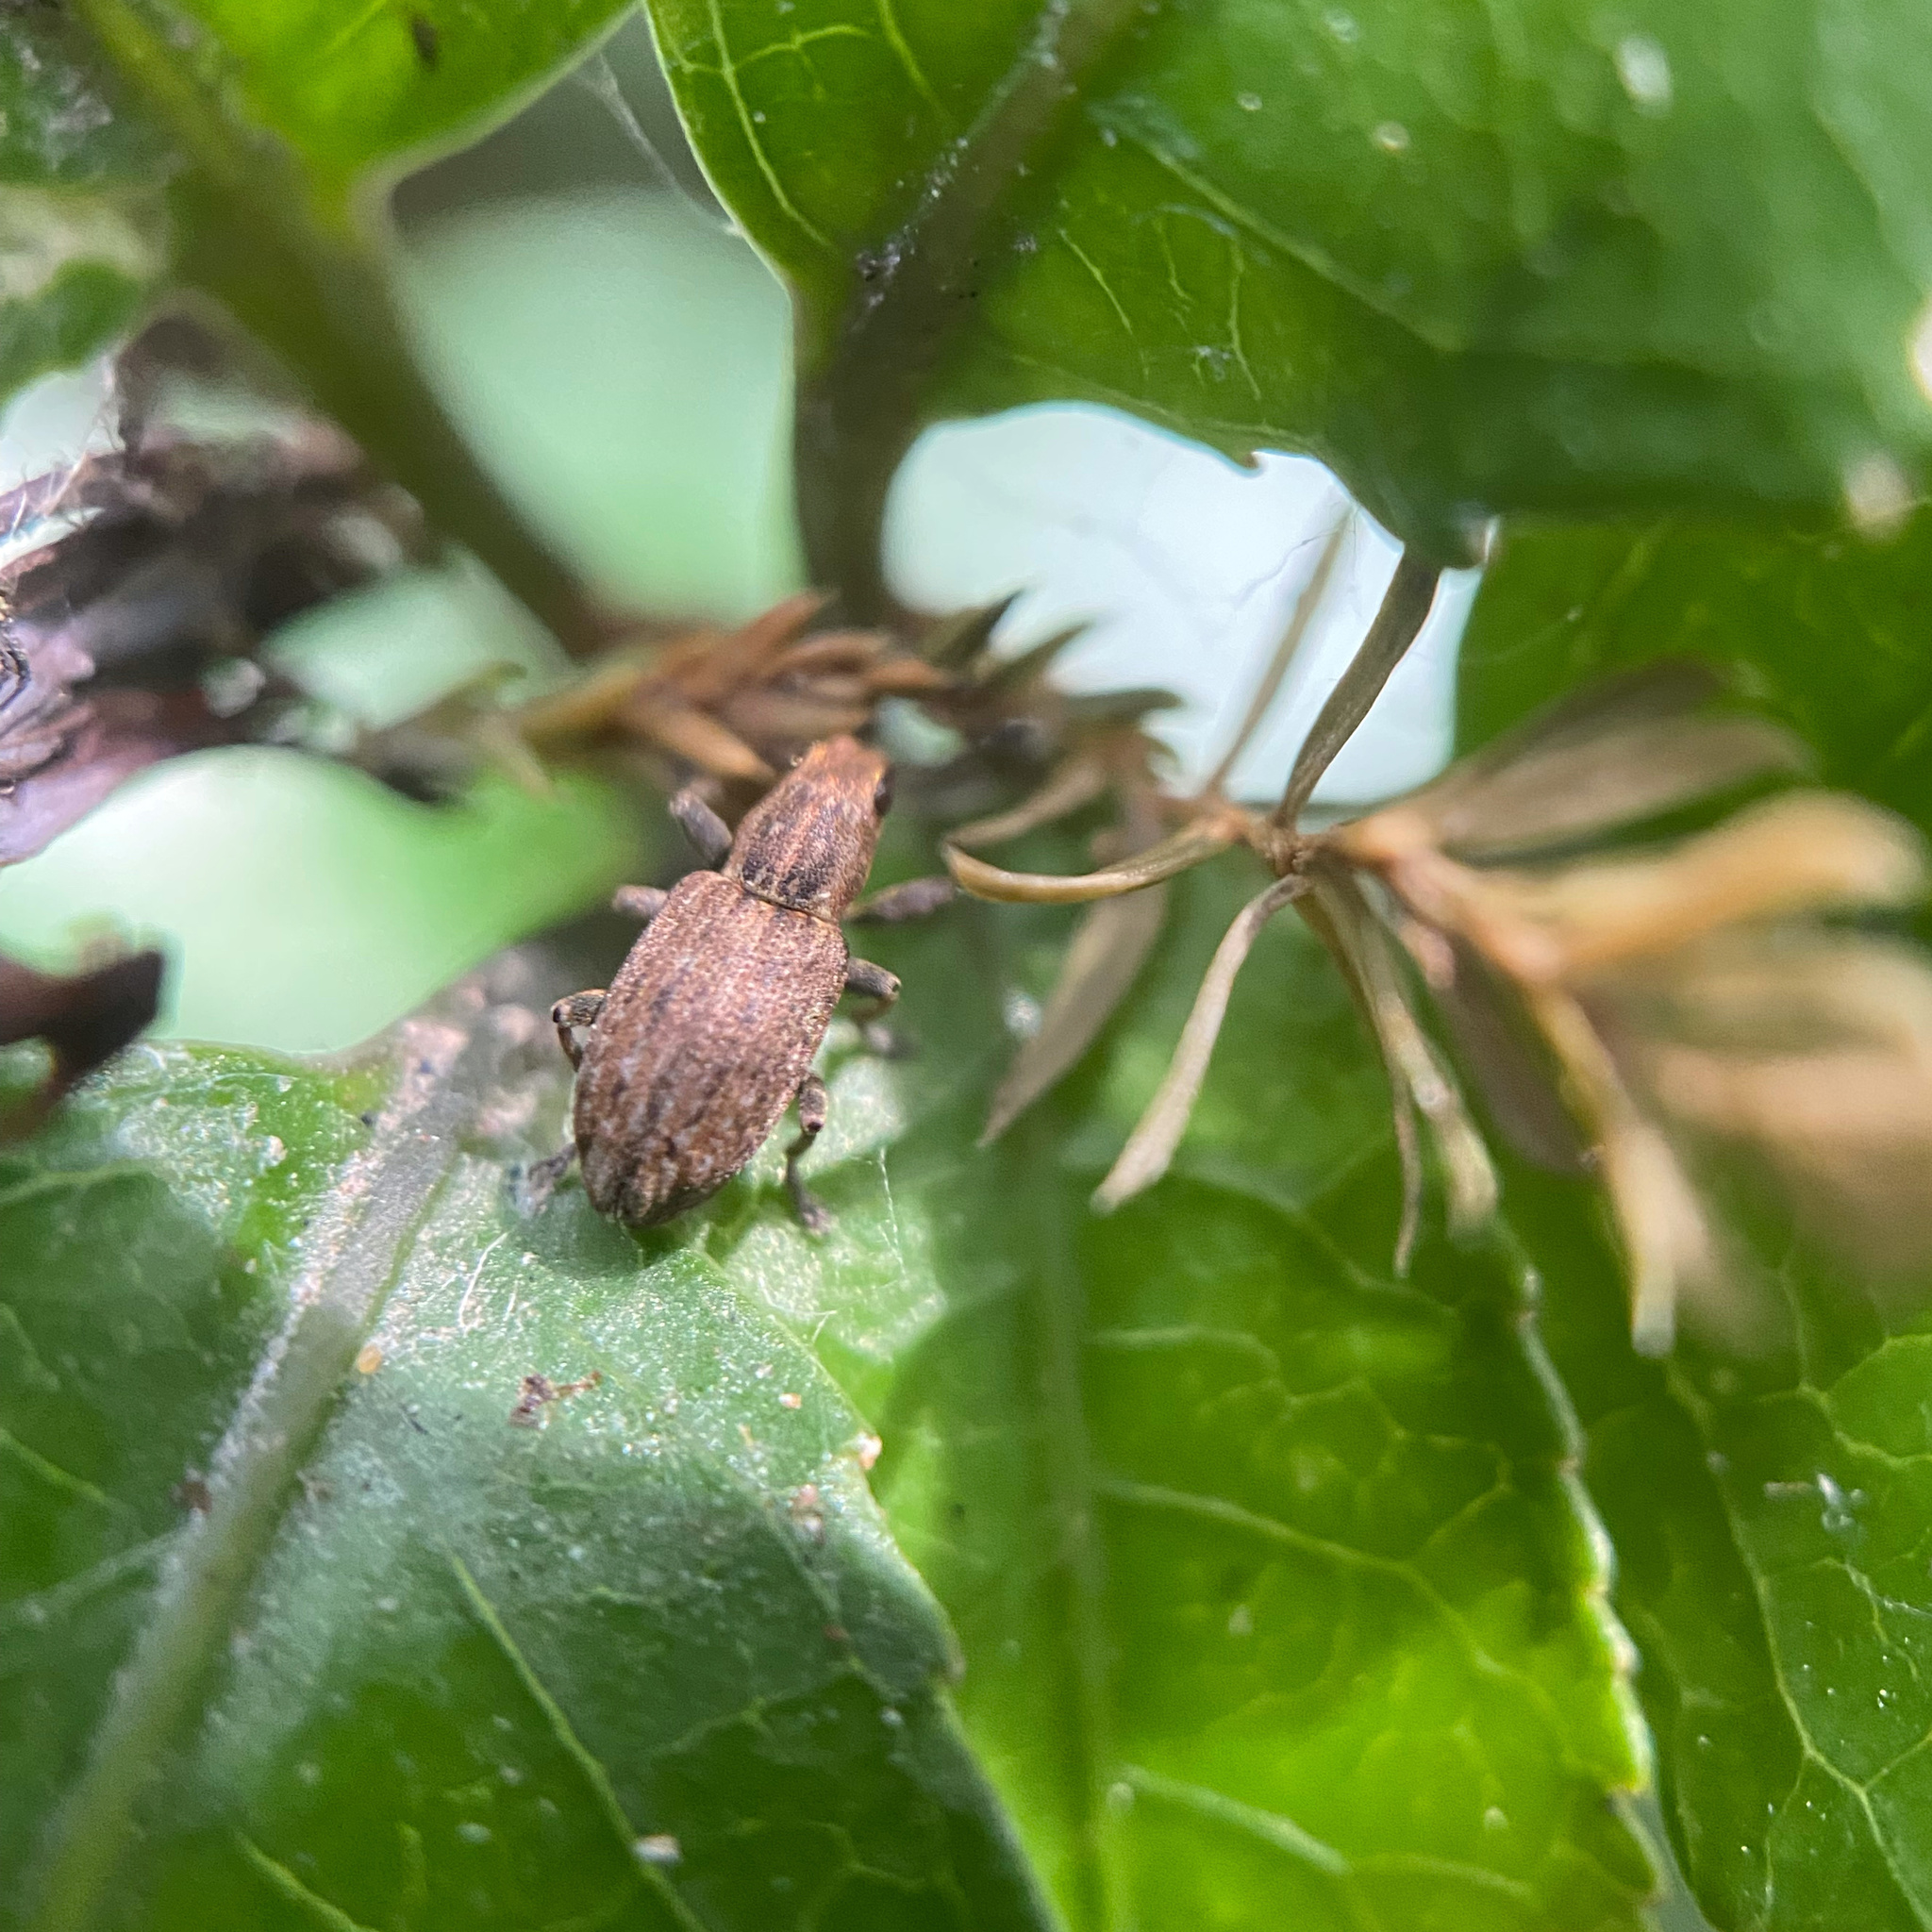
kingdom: Animalia
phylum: Arthropoda
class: Insecta
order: Coleoptera
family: Curculionidae
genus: Sitona
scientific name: Sitona obsoletus
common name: Weevil
